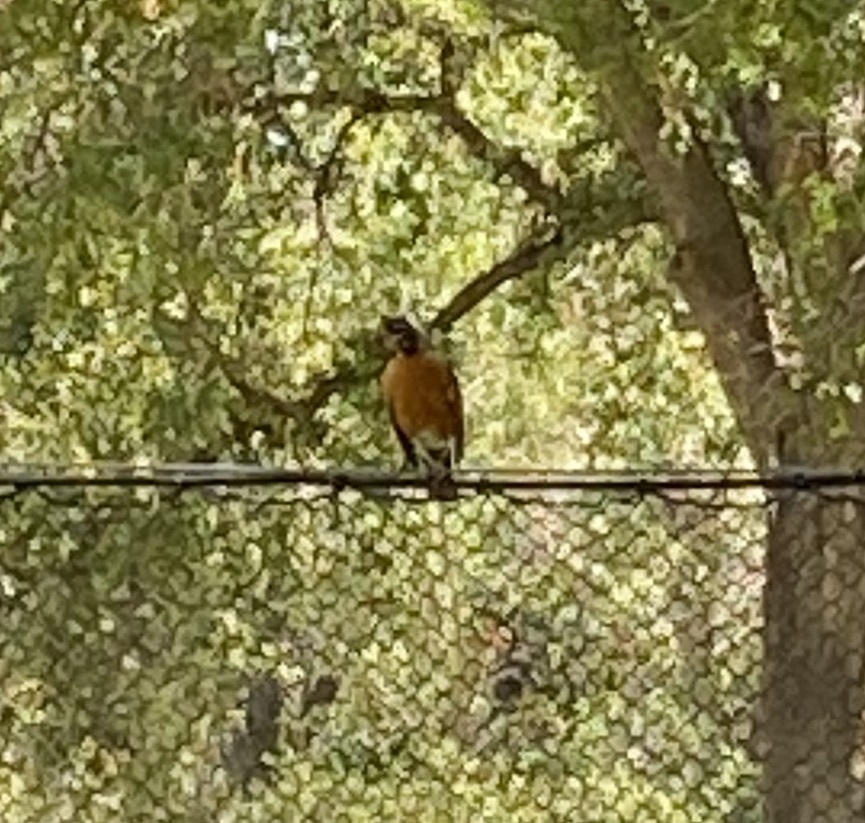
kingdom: Animalia
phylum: Chordata
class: Aves
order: Passeriformes
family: Turdidae
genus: Turdus
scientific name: Turdus migratorius
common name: American robin
